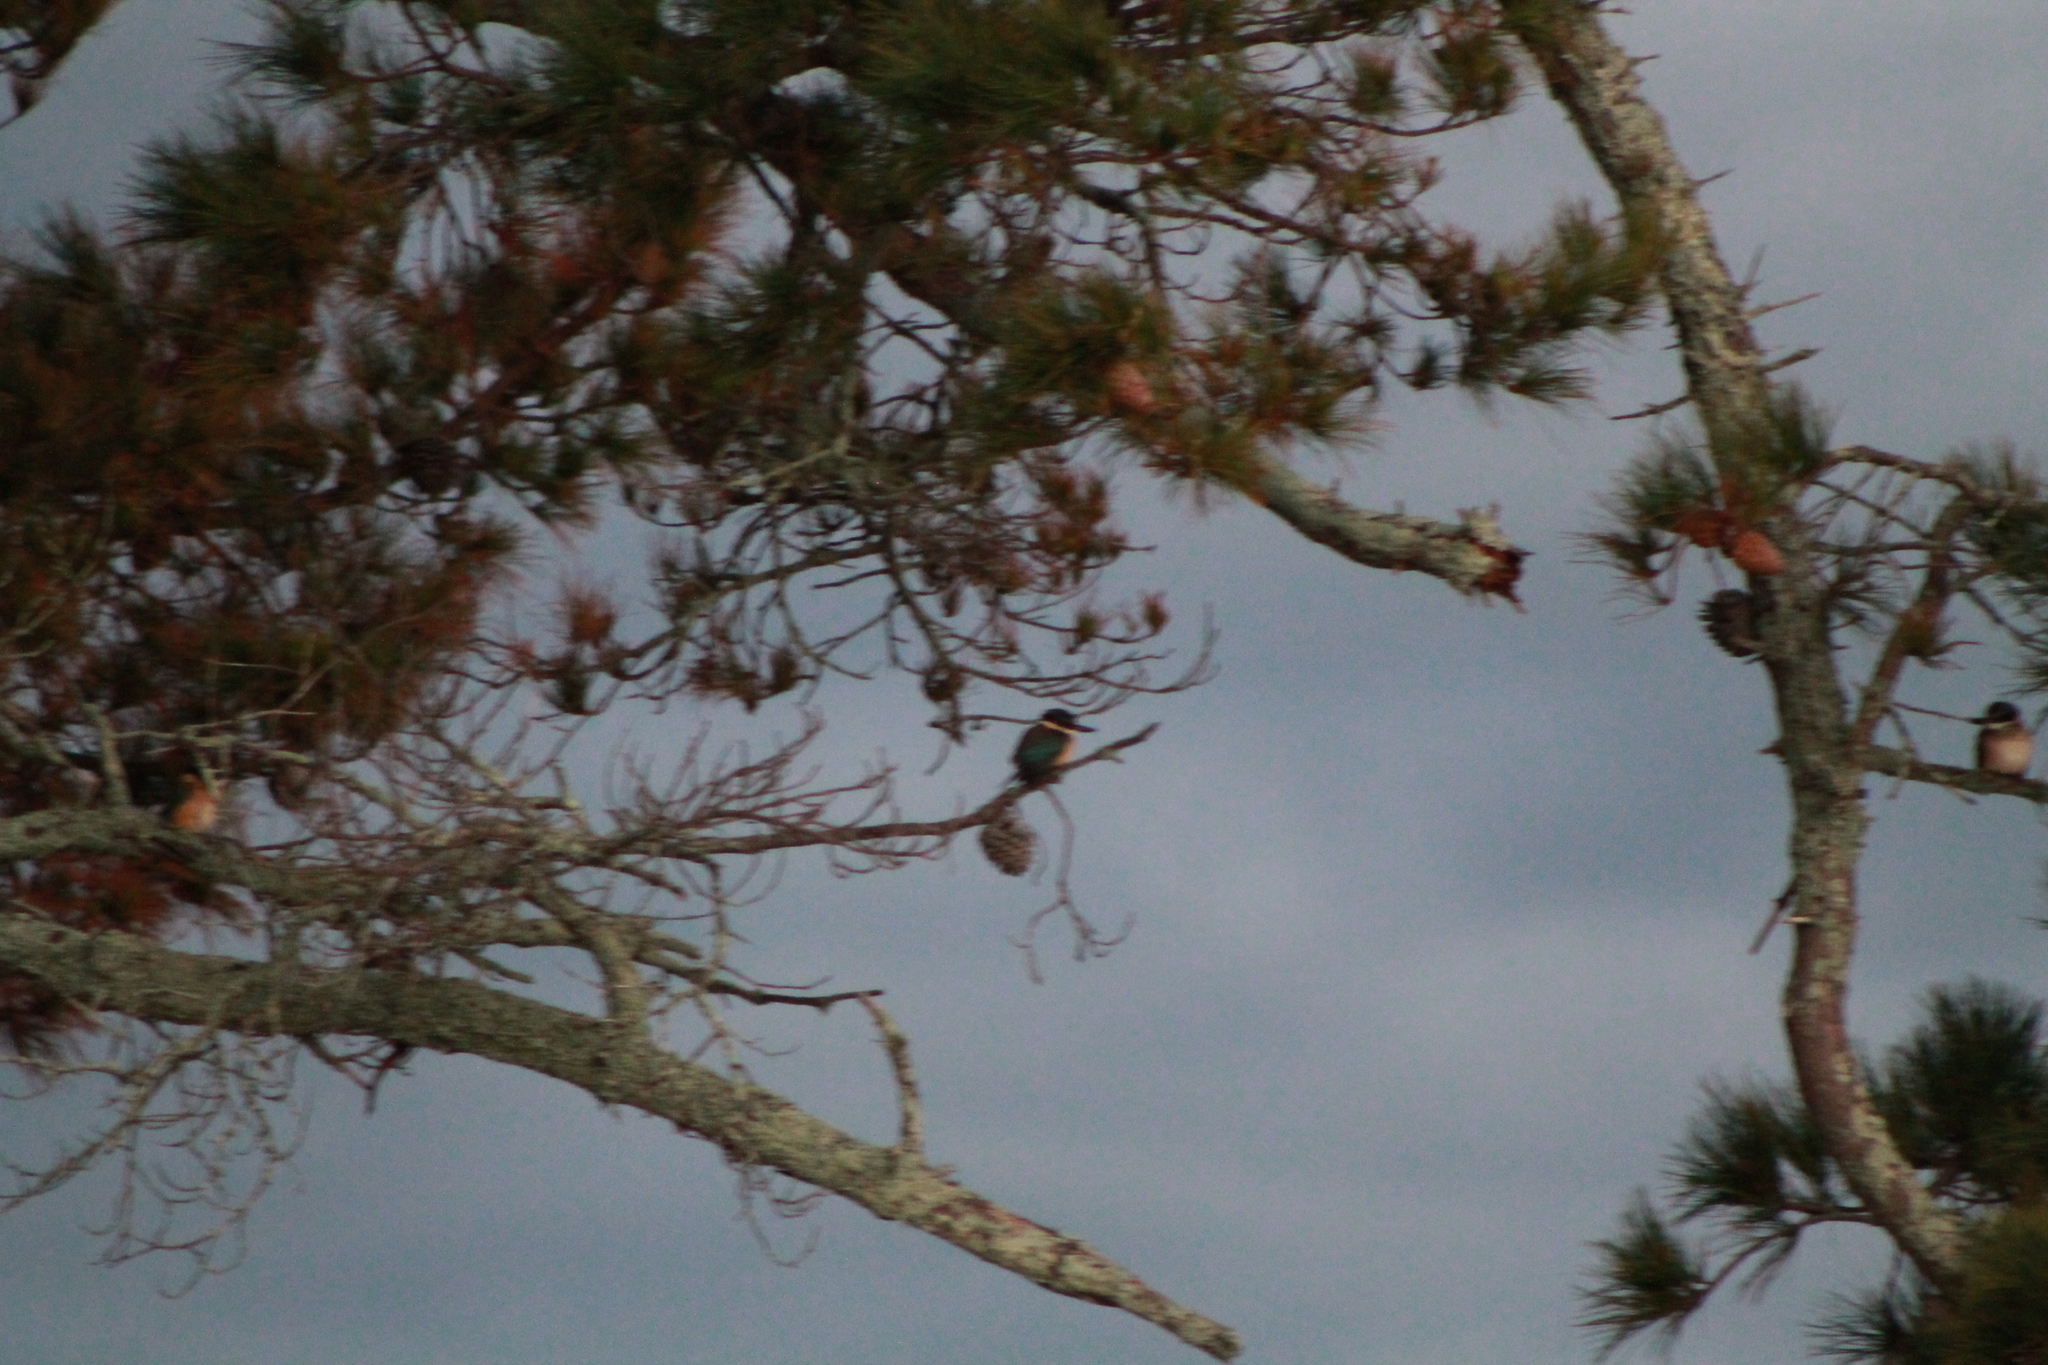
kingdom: Animalia
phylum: Chordata
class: Aves
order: Coraciiformes
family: Alcedinidae
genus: Todiramphus
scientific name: Todiramphus sanctus
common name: Sacred kingfisher
